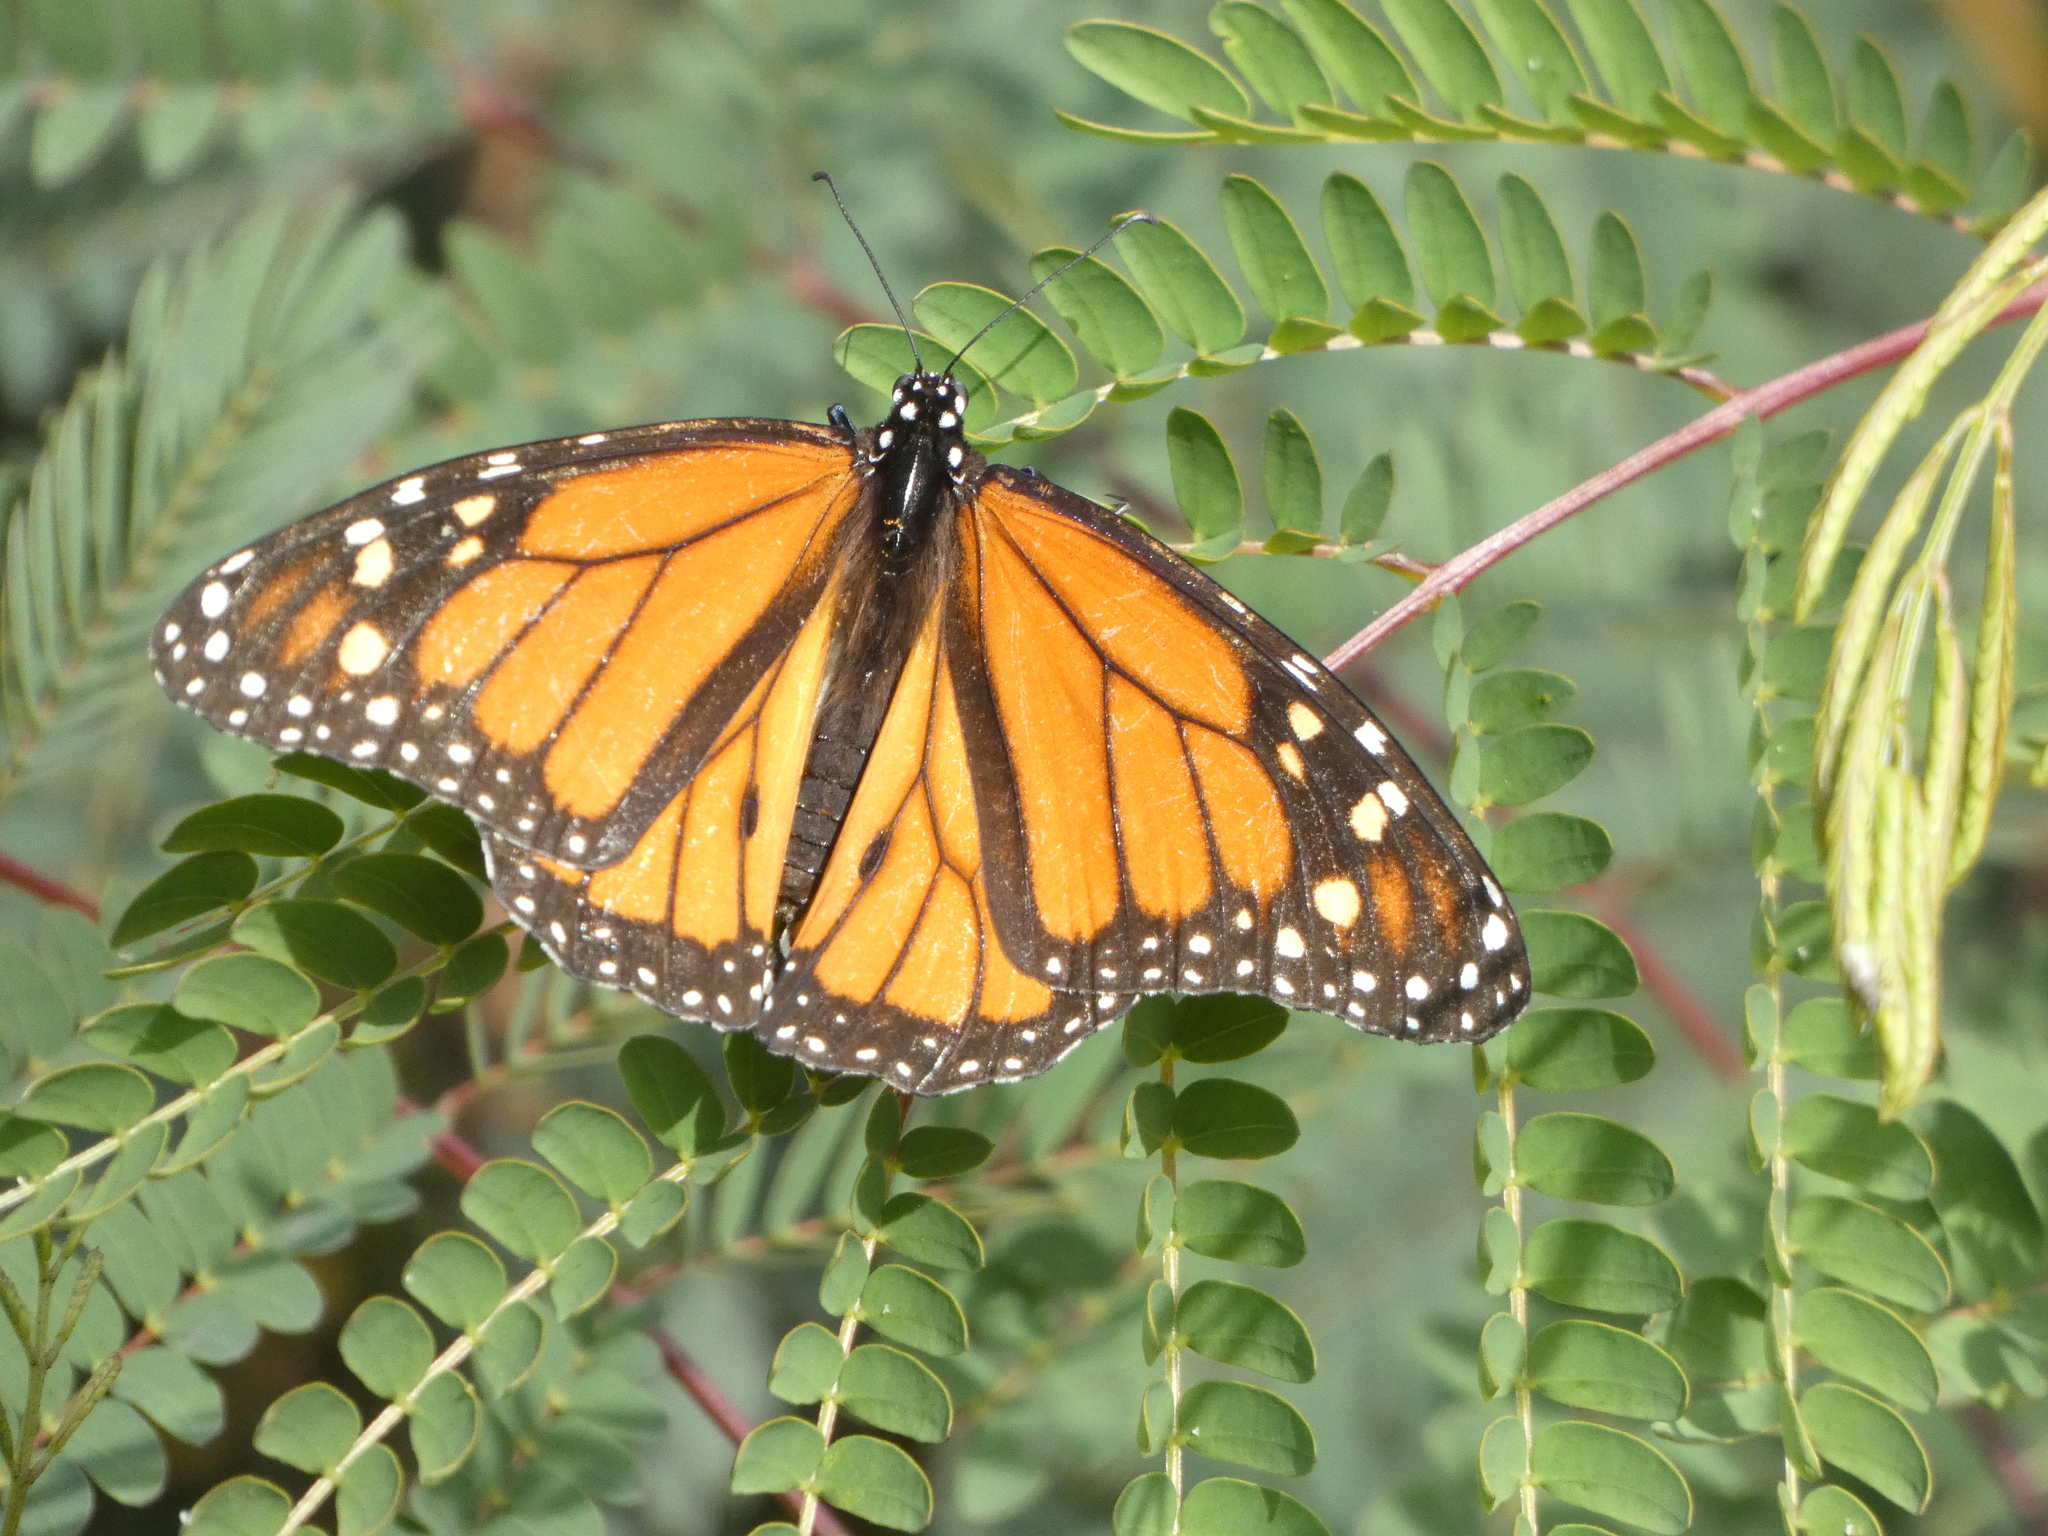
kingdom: Animalia
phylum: Arthropoda
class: Insecta
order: Lepidoptera
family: Nymphalidae
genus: Danaus
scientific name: Danaus plexippus
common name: Monarch
